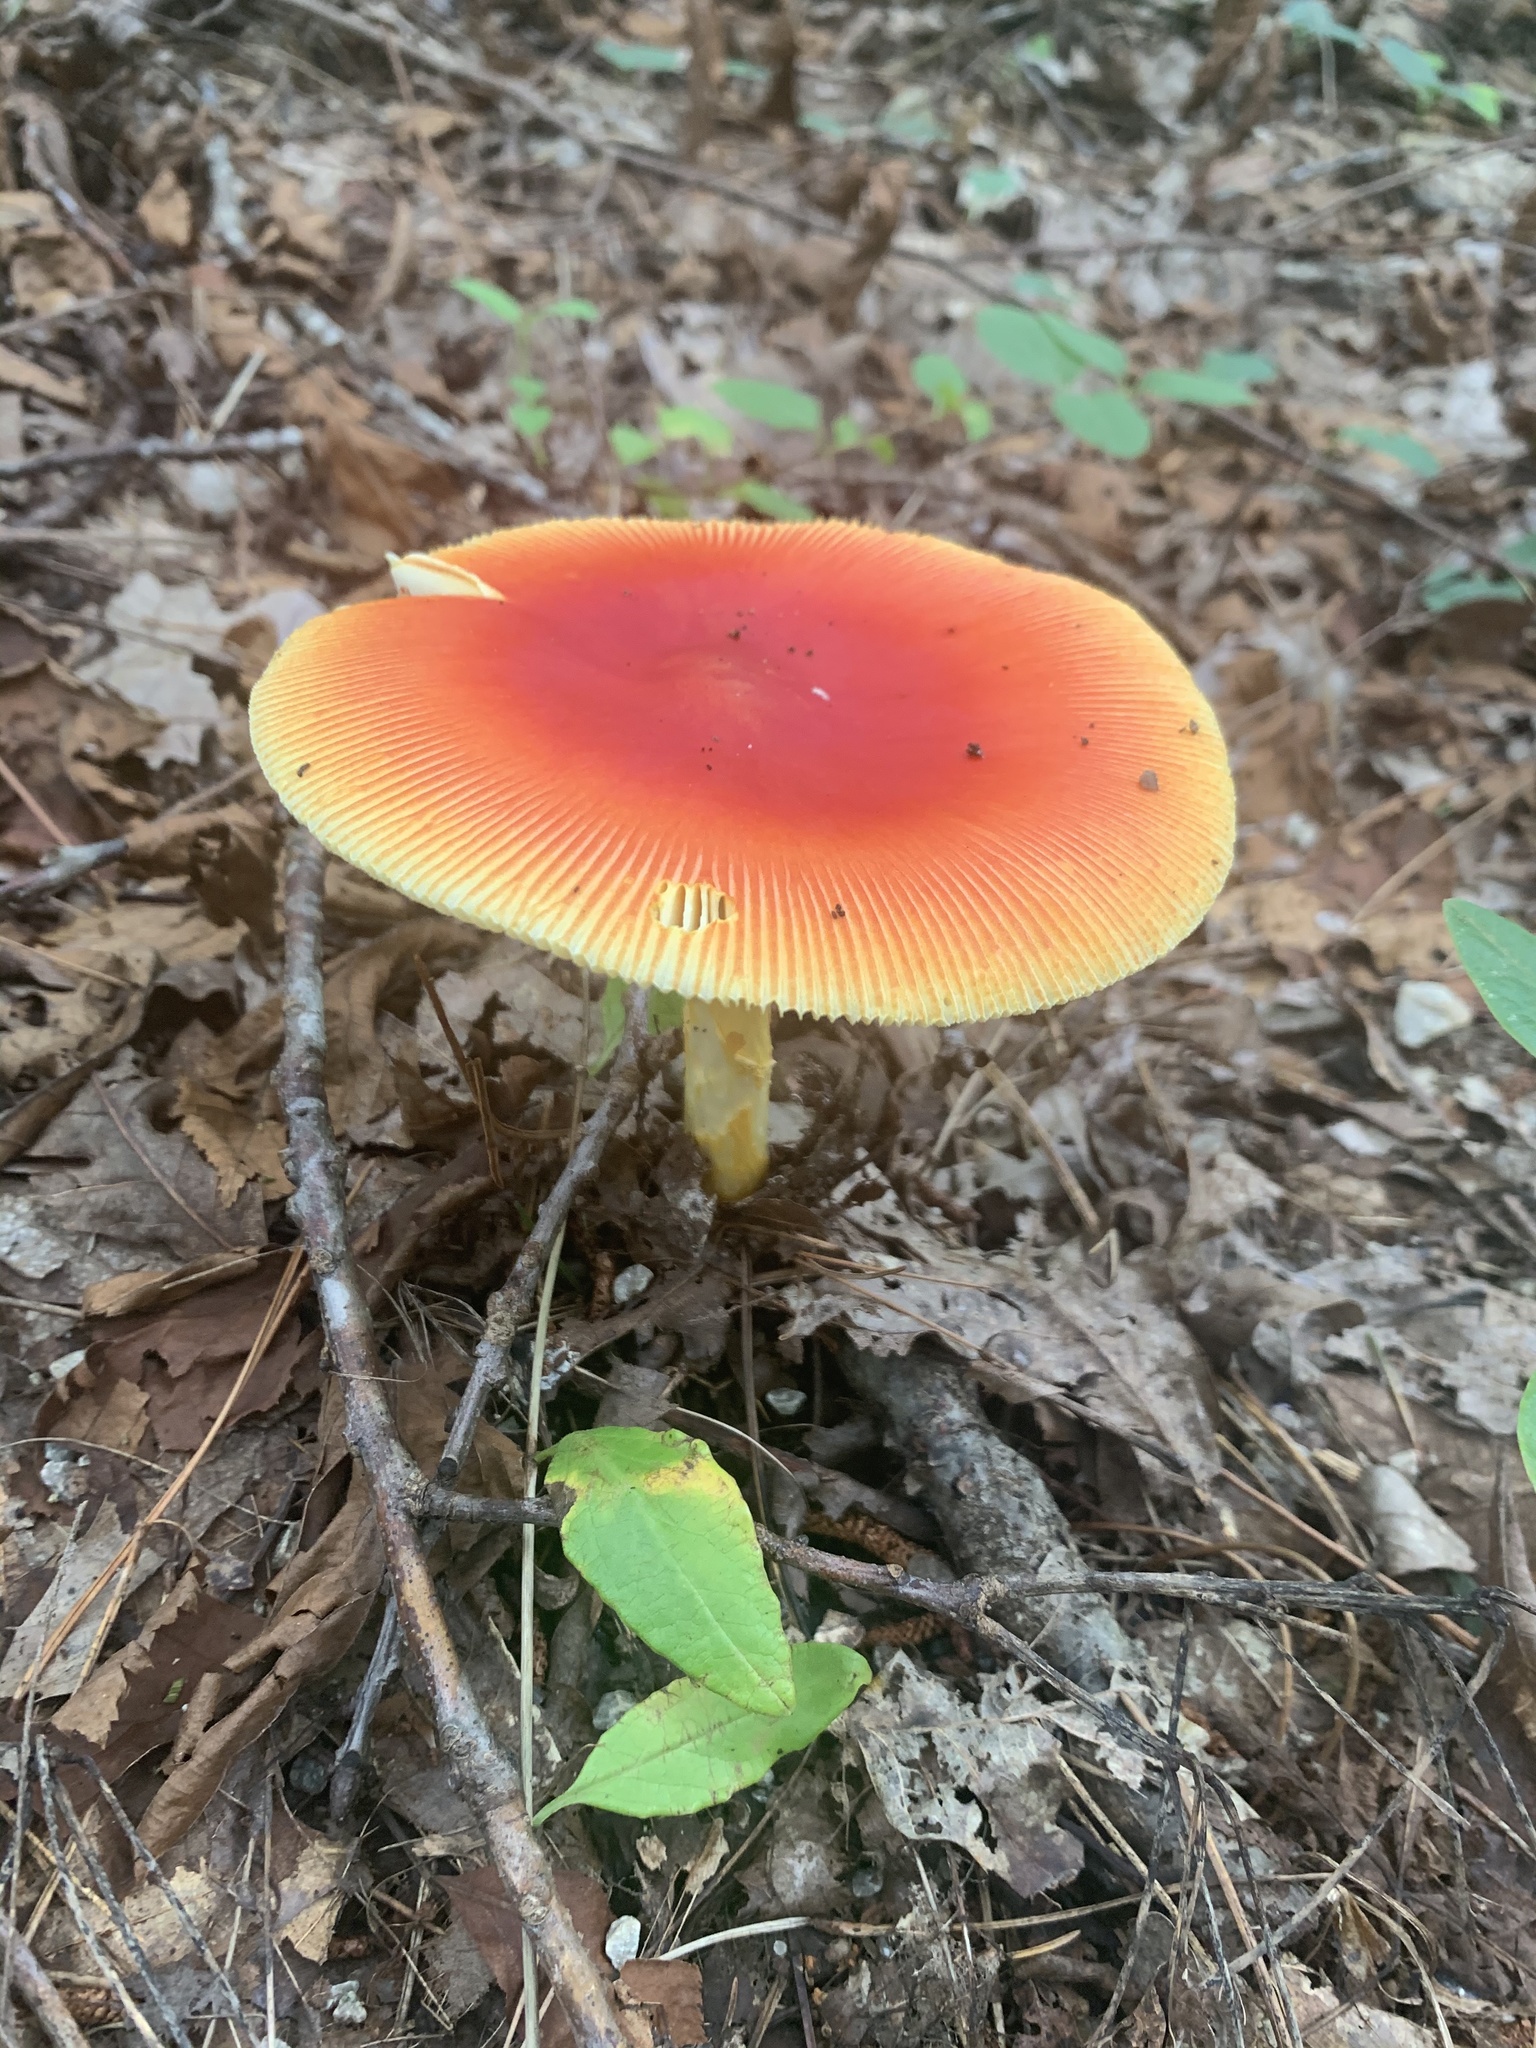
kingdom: Fungi
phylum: Basidiomycota
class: Agaricomycetes
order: Agaricales
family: Amanitaceae
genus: Amanita
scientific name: Amanita jacksonii
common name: Jackson's slender caesar
